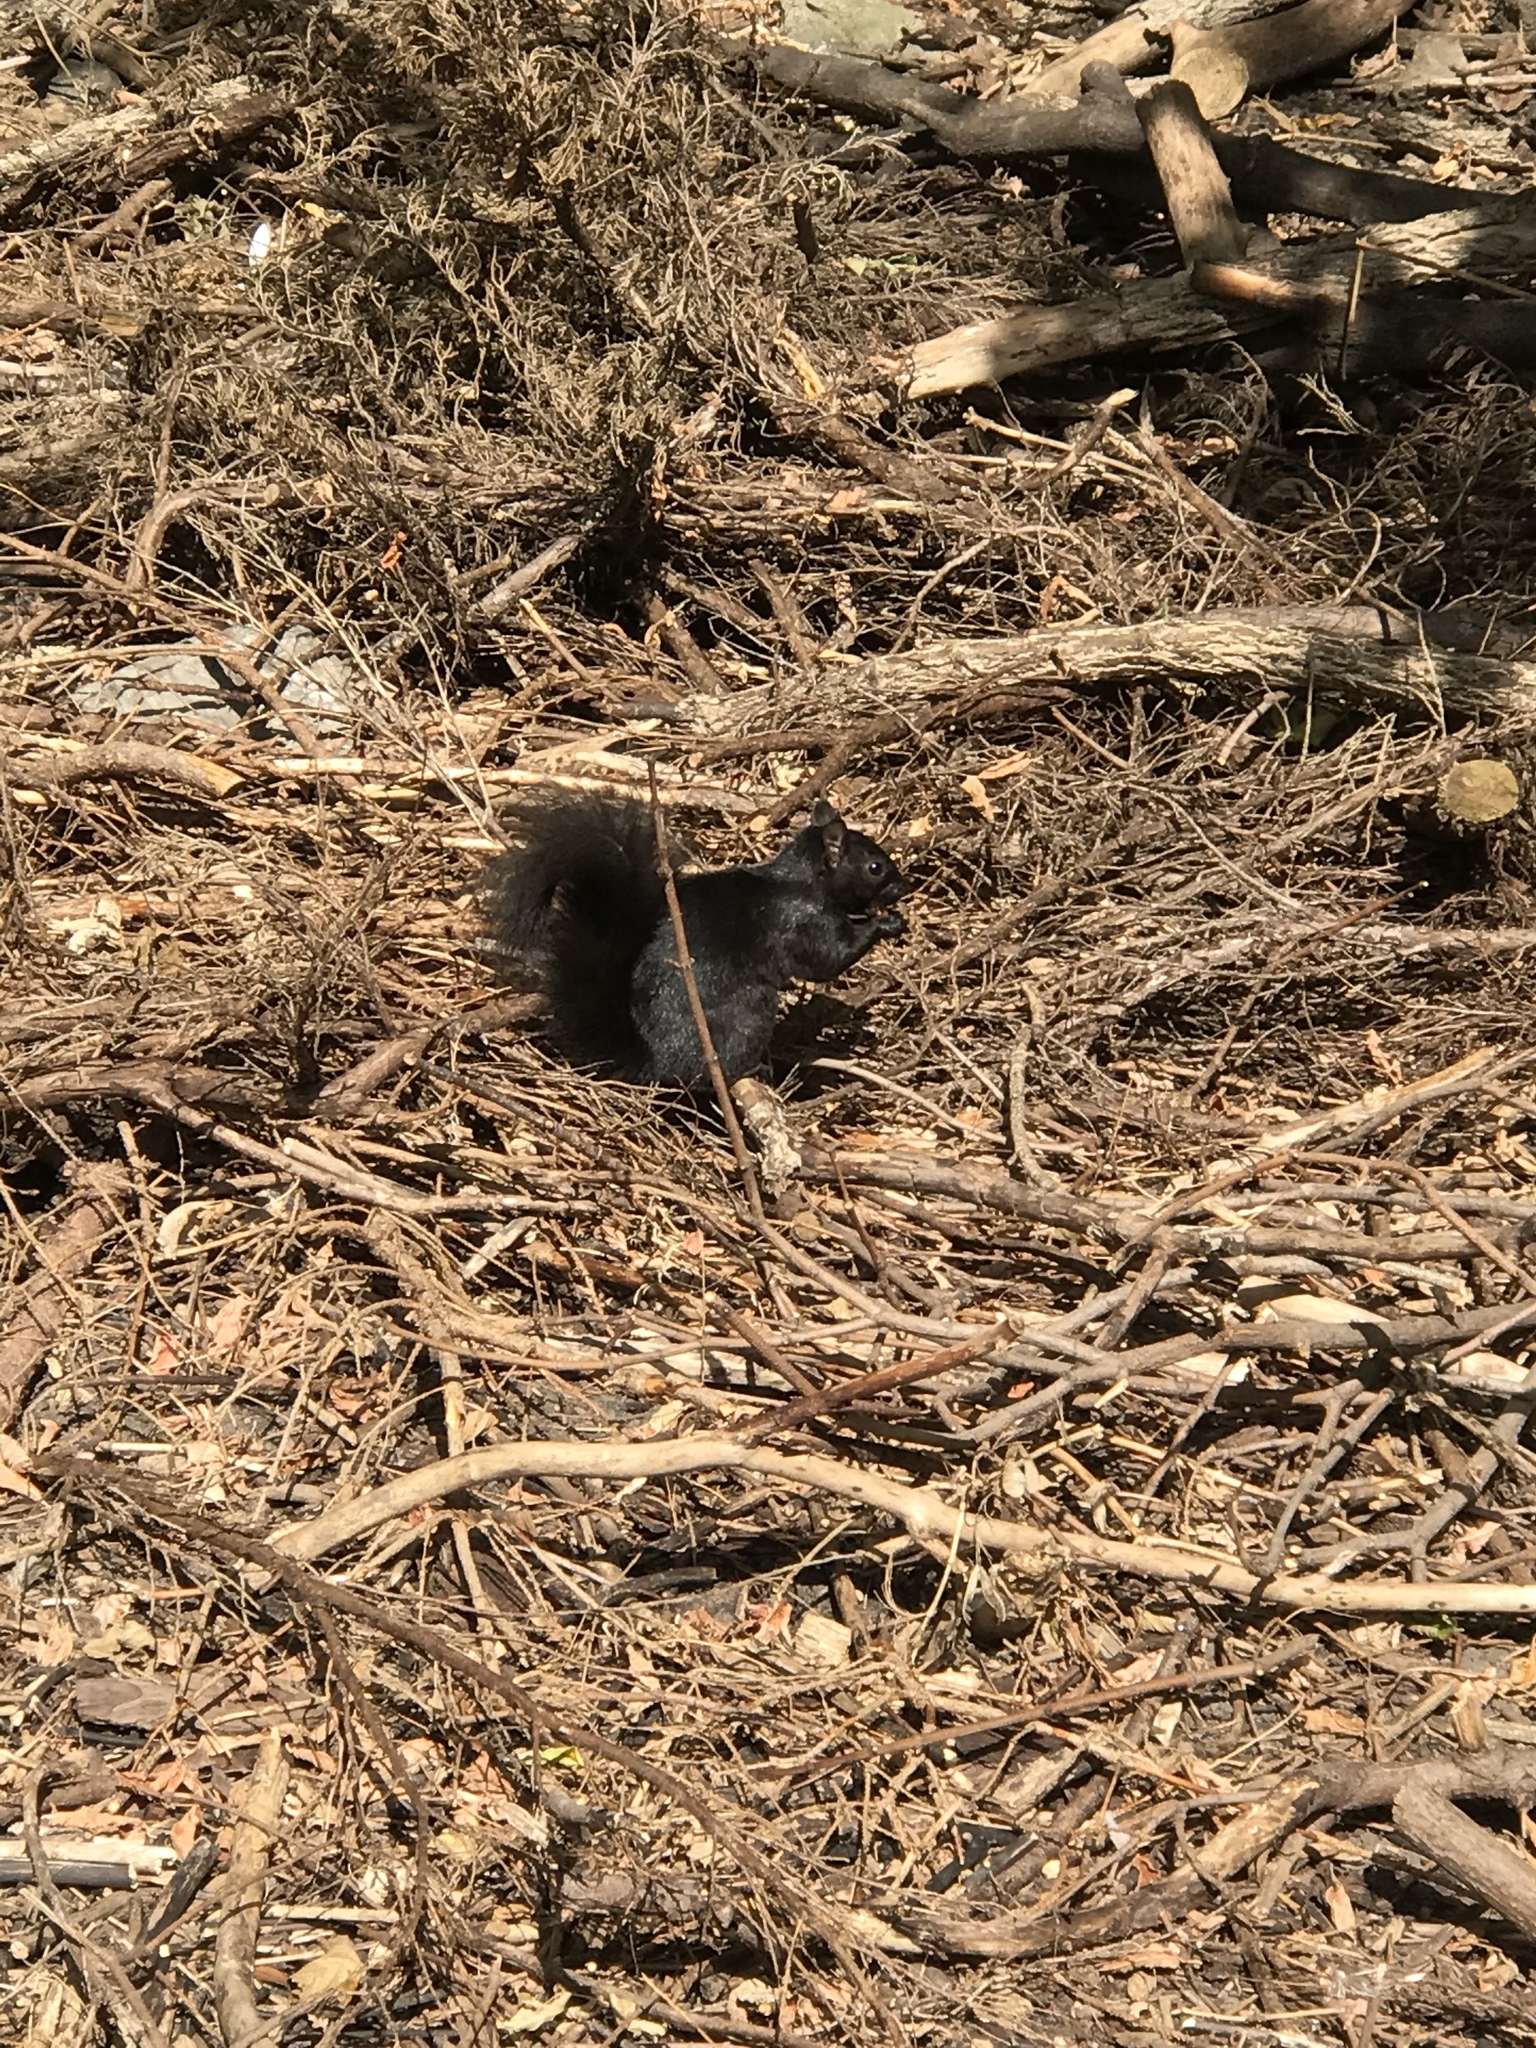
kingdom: Animalia
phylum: Chordata
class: Mammalia
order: Rodentia
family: Sciuridae
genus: Sciurus
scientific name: Sciurus carolinensis
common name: Eastern gray squirrel
